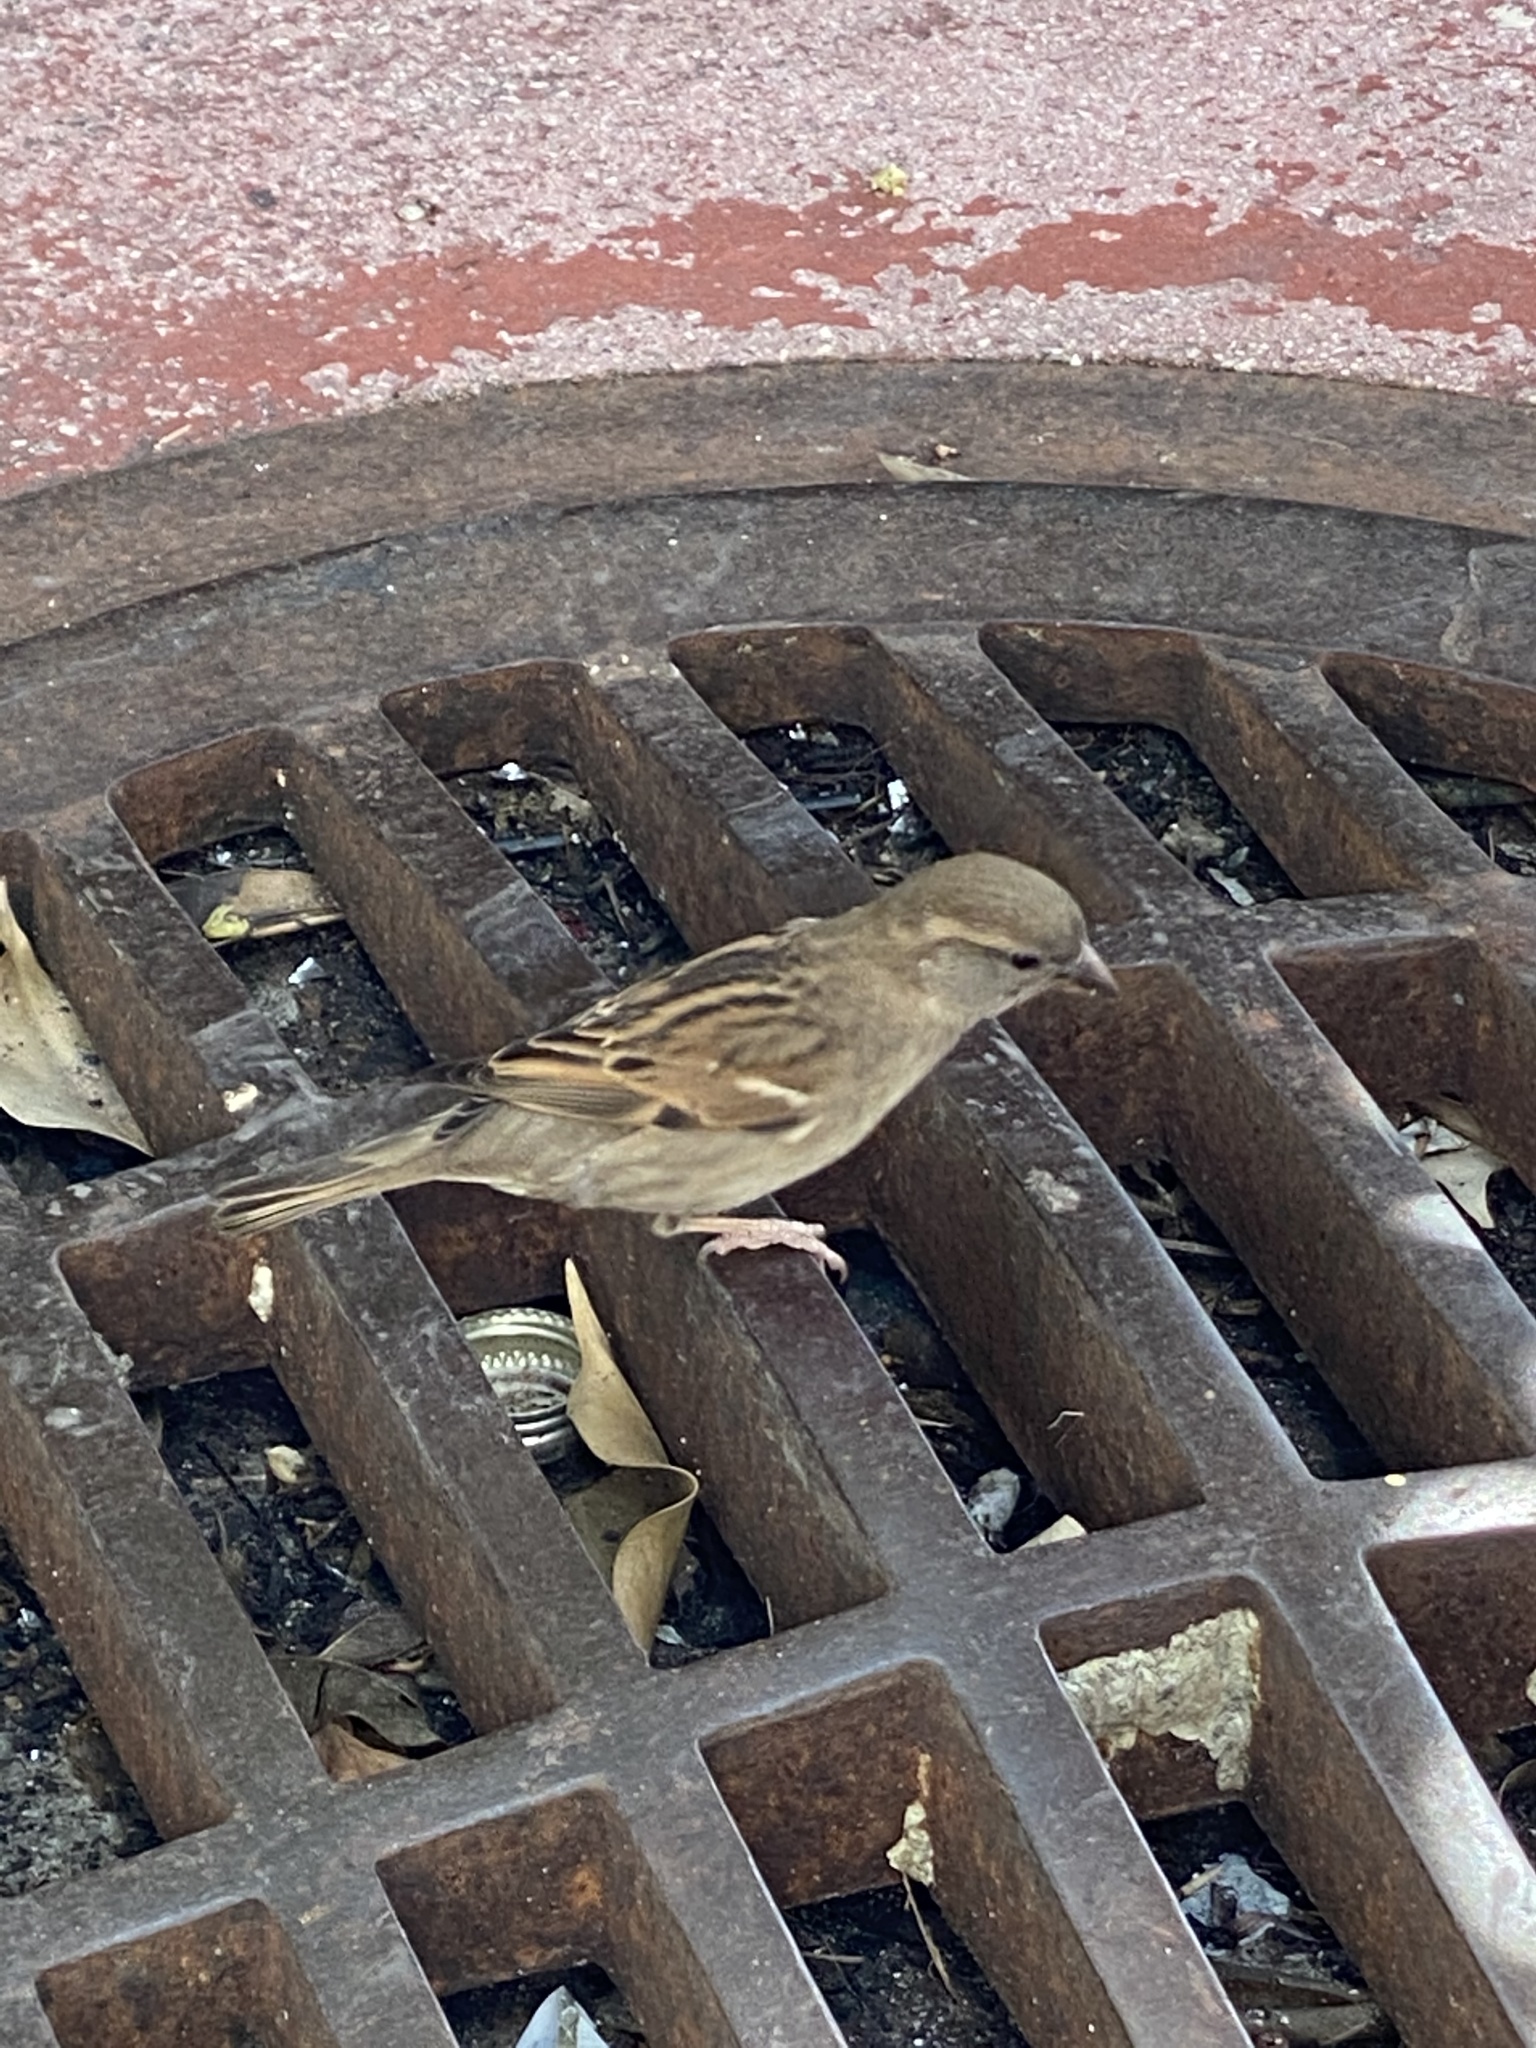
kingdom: Animalia
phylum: Chordata
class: Aves
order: Passeriformes
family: Passeridae
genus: Passer
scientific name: Passer domesticus
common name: House sparrow
